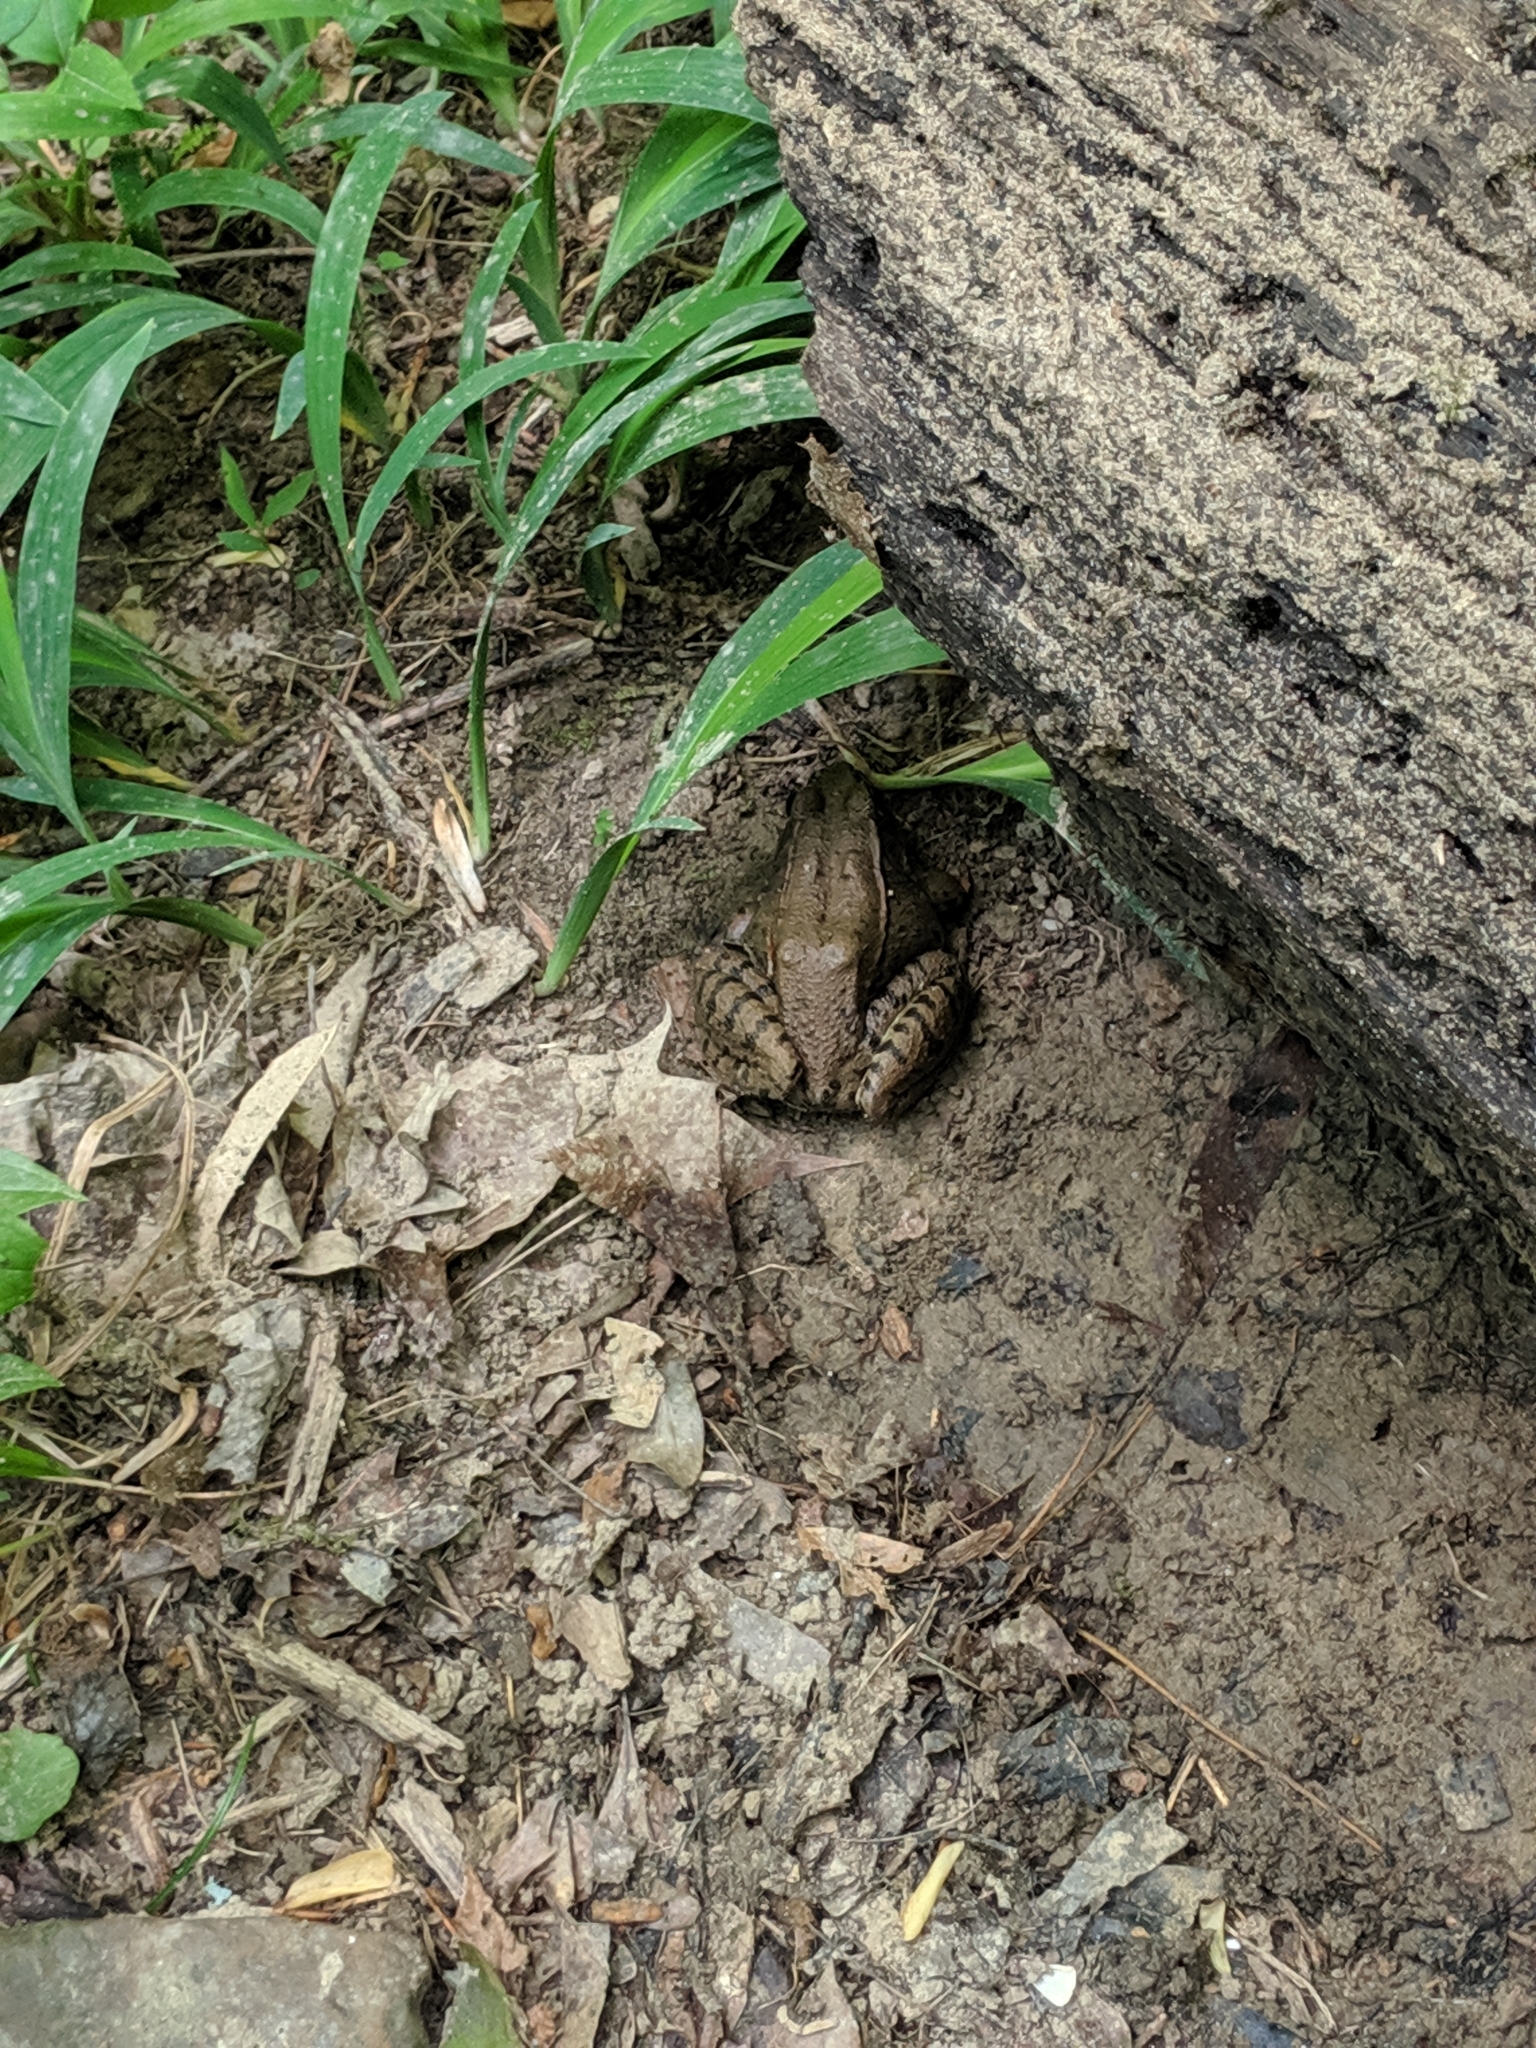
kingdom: Animalia
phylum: Chordata
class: Amphibia
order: Anura
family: Ranidae
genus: Lithobates
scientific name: Lithobates clamitans
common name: Green frog
